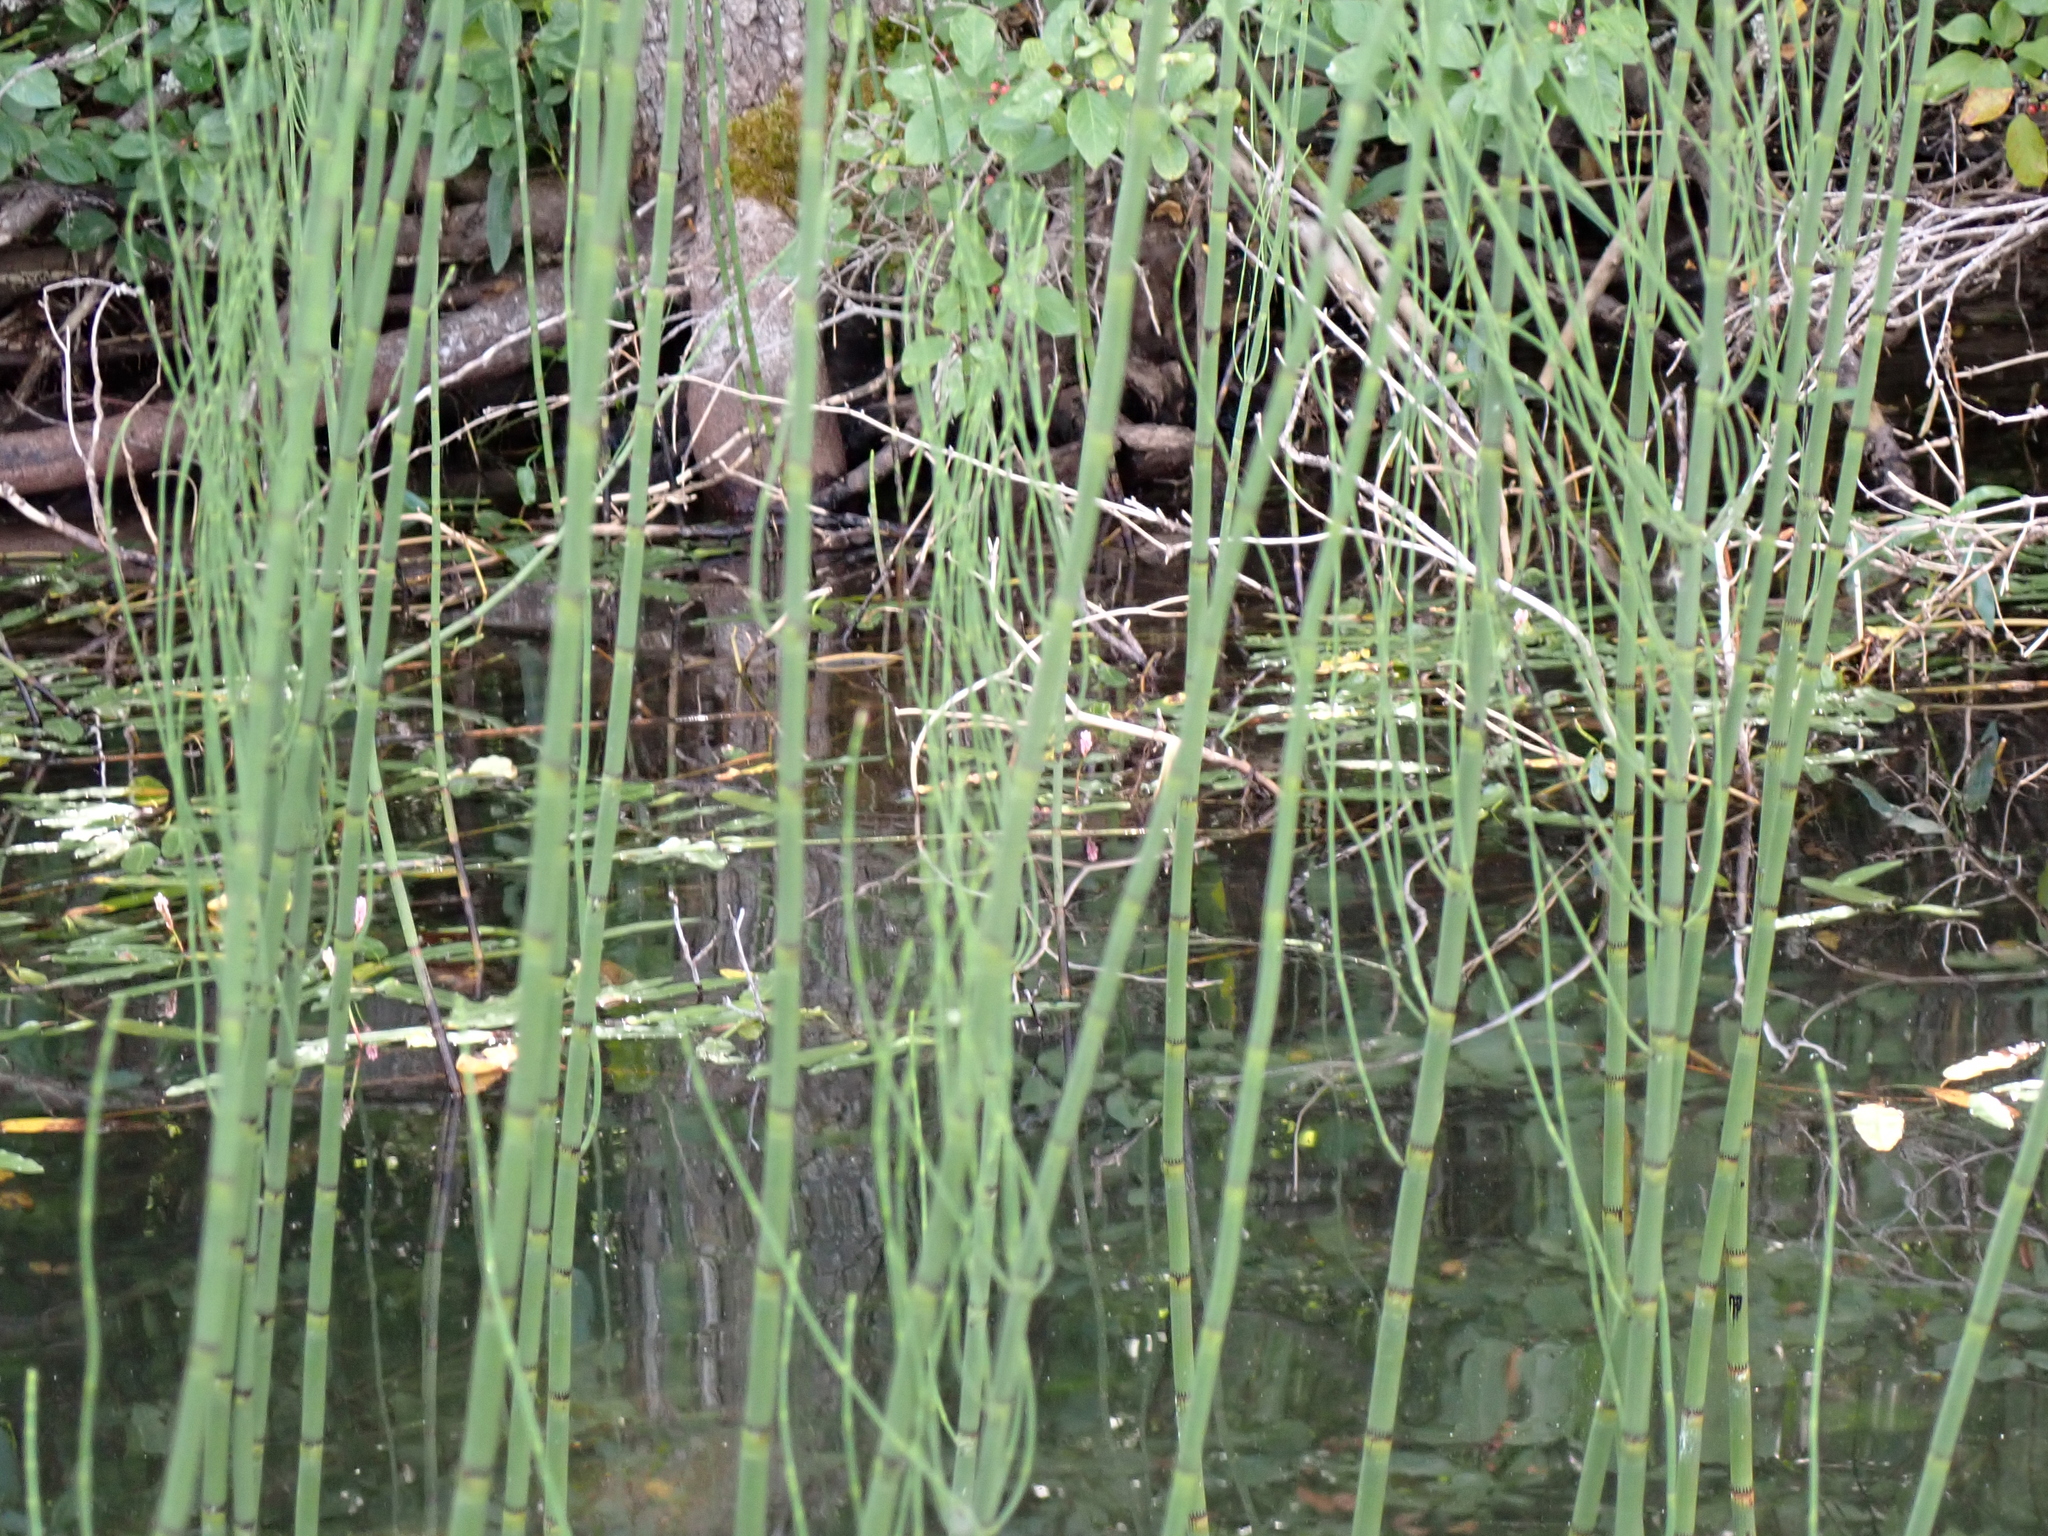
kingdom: Plantae
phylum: Tracheophyta
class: Polypodiopsida
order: Equisetales
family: Equisetaceae
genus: Equisetum
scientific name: Equisetum fluviatile
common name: Water horsetail
